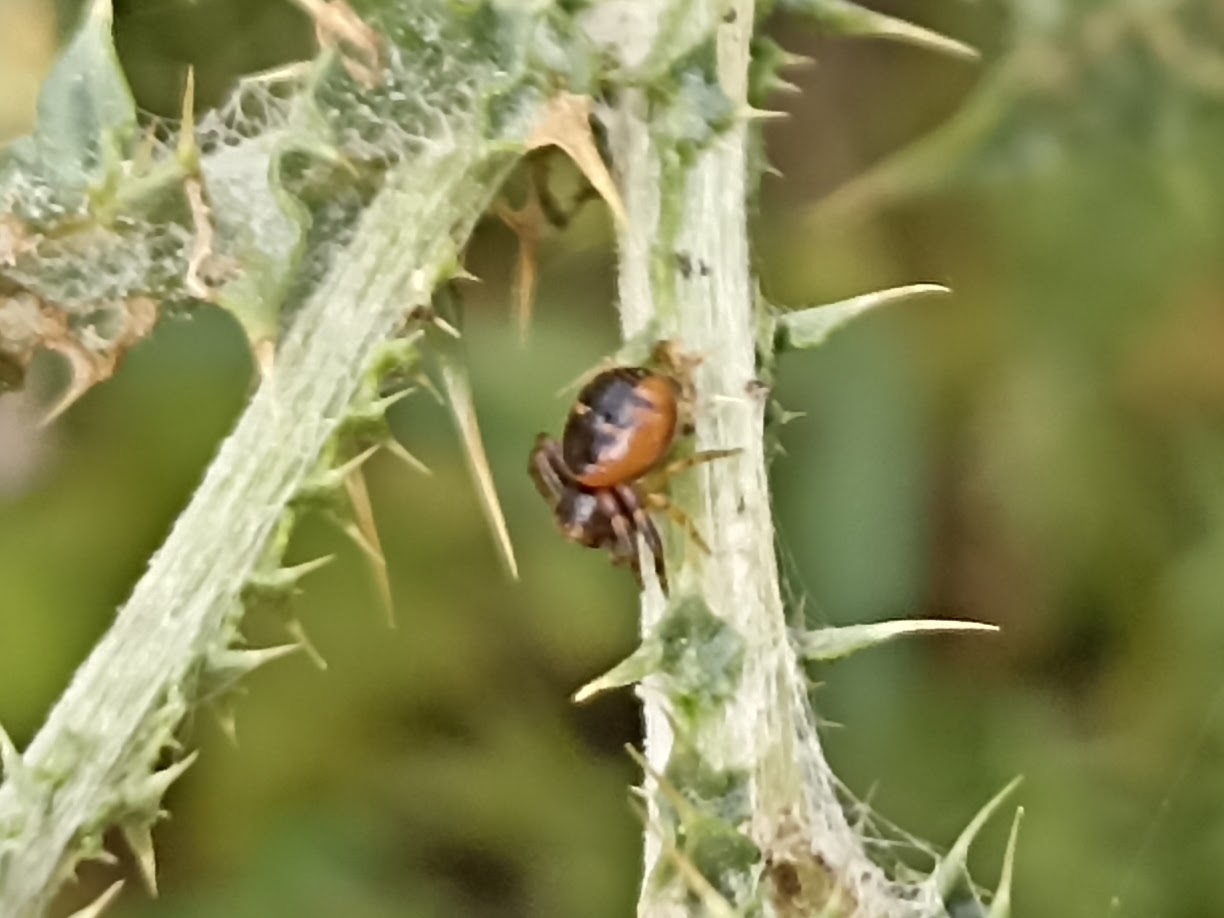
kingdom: Animalia
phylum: Arthropoda
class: Arachnida
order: Araneae
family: Thomisidae
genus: Synema
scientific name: Synema globosum
